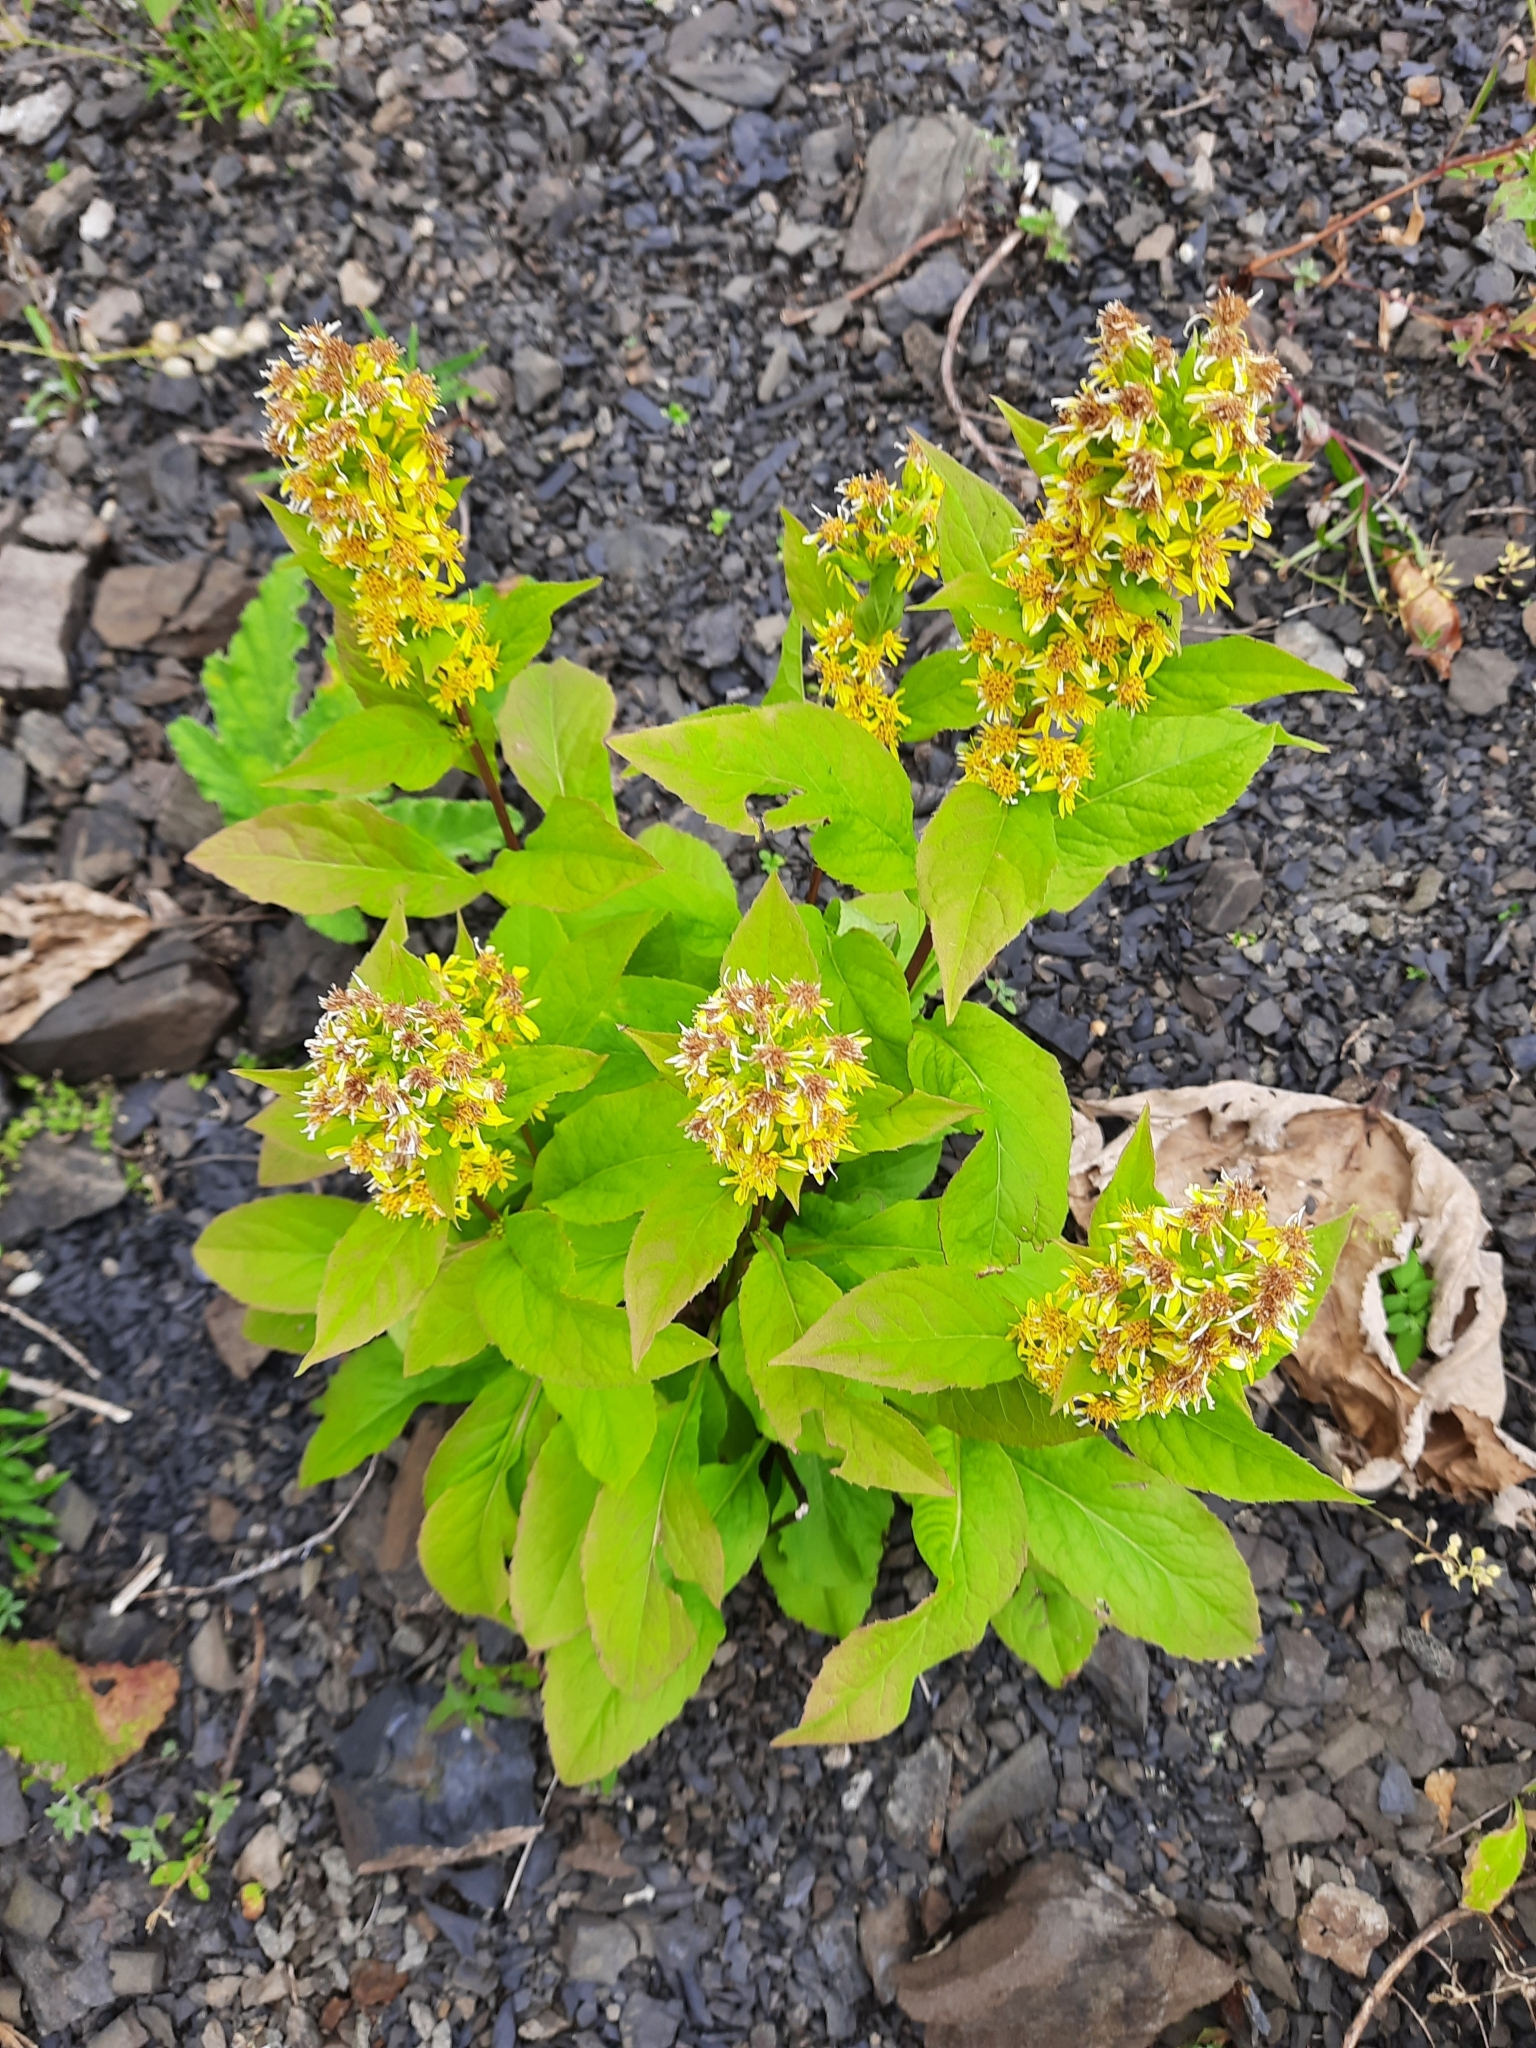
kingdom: Plantae
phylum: Tracheophyta
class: Magnoliopsida
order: Asterales
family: Asteraceae
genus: Solidago
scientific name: Solidago virgaurea
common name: Goldenrod
